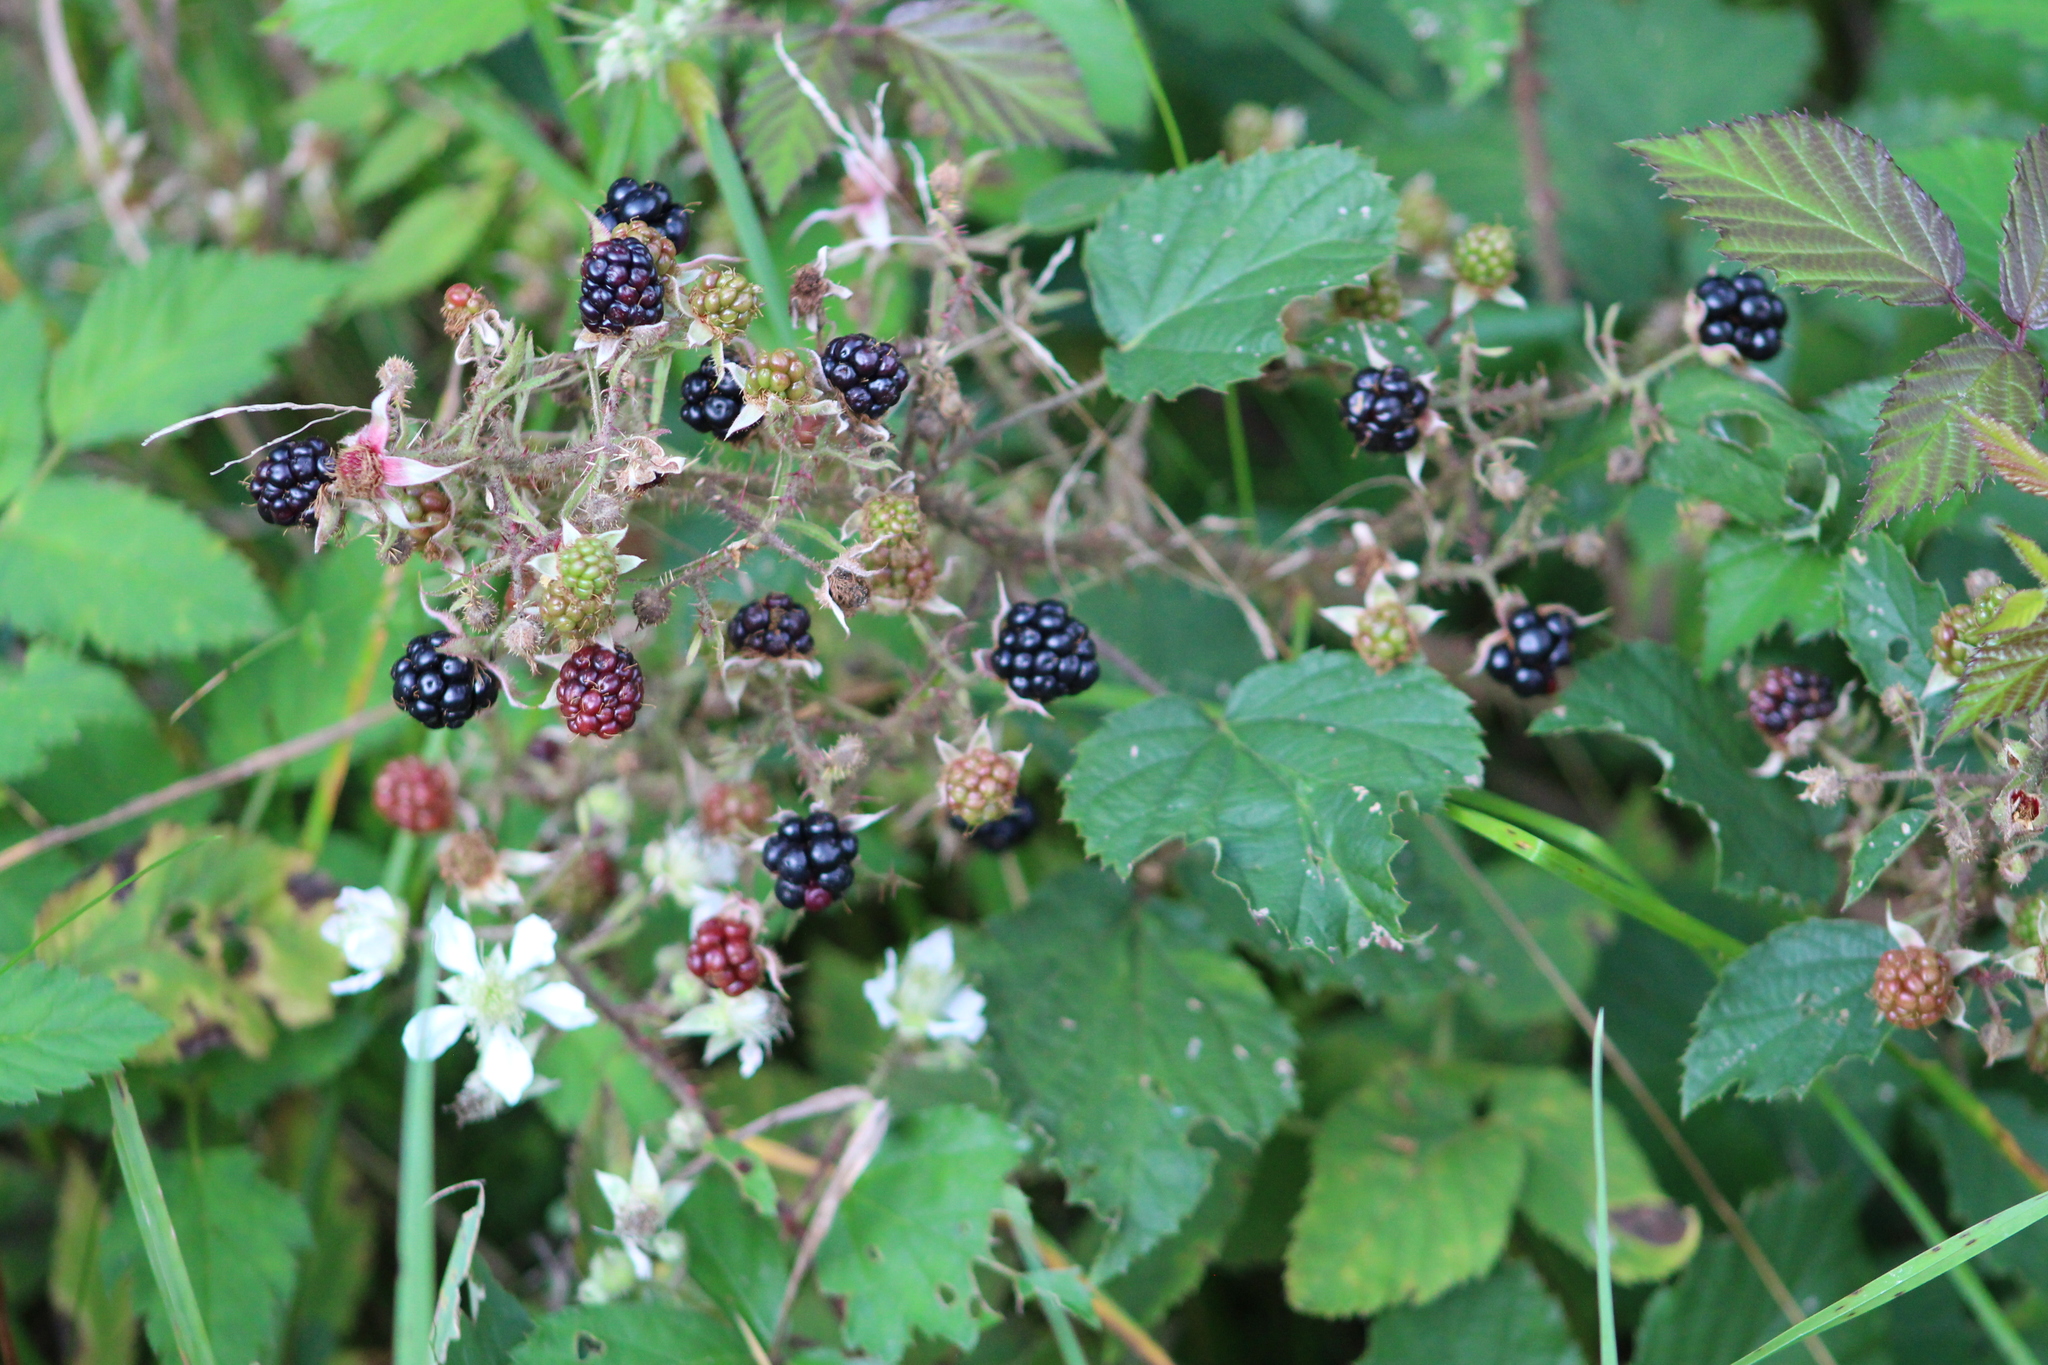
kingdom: Plantae
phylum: Tracheophyta
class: Magnoliopsida
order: Rosales
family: Rosaceae
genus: Rubus
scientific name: Rubus caesius
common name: Dewberry
